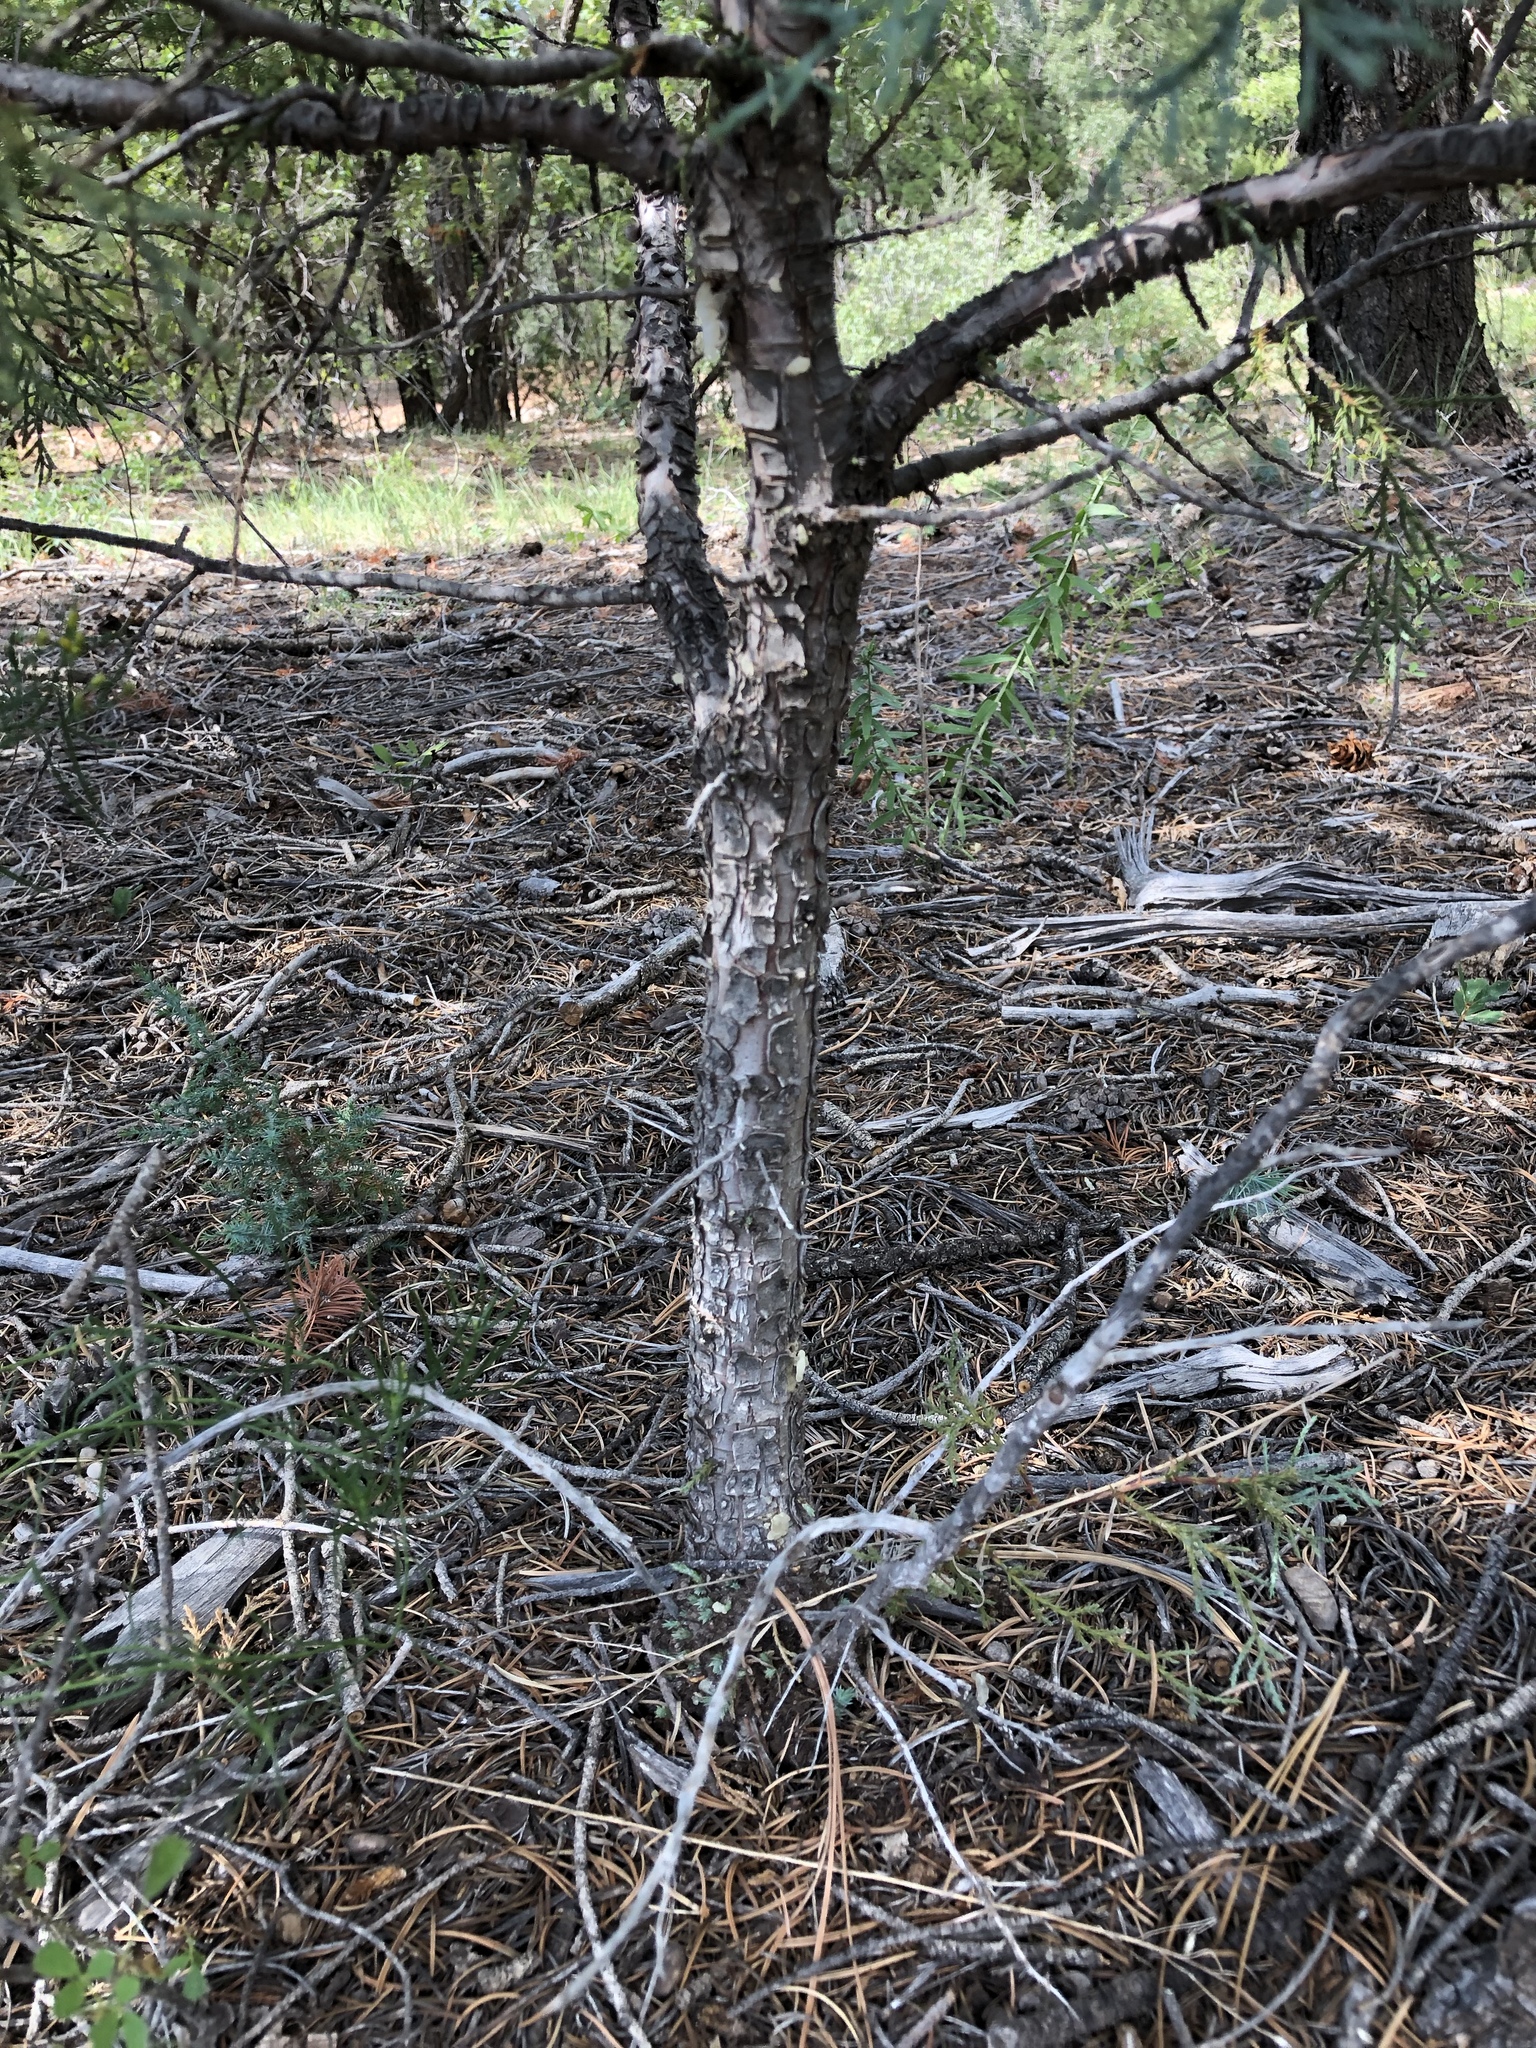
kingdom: Plantae
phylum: Tracheophyta
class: Pinopsida
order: Pinales
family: Cupressaceae
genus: Juniperus
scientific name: Juniperus deppeana
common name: Alligator juniper
